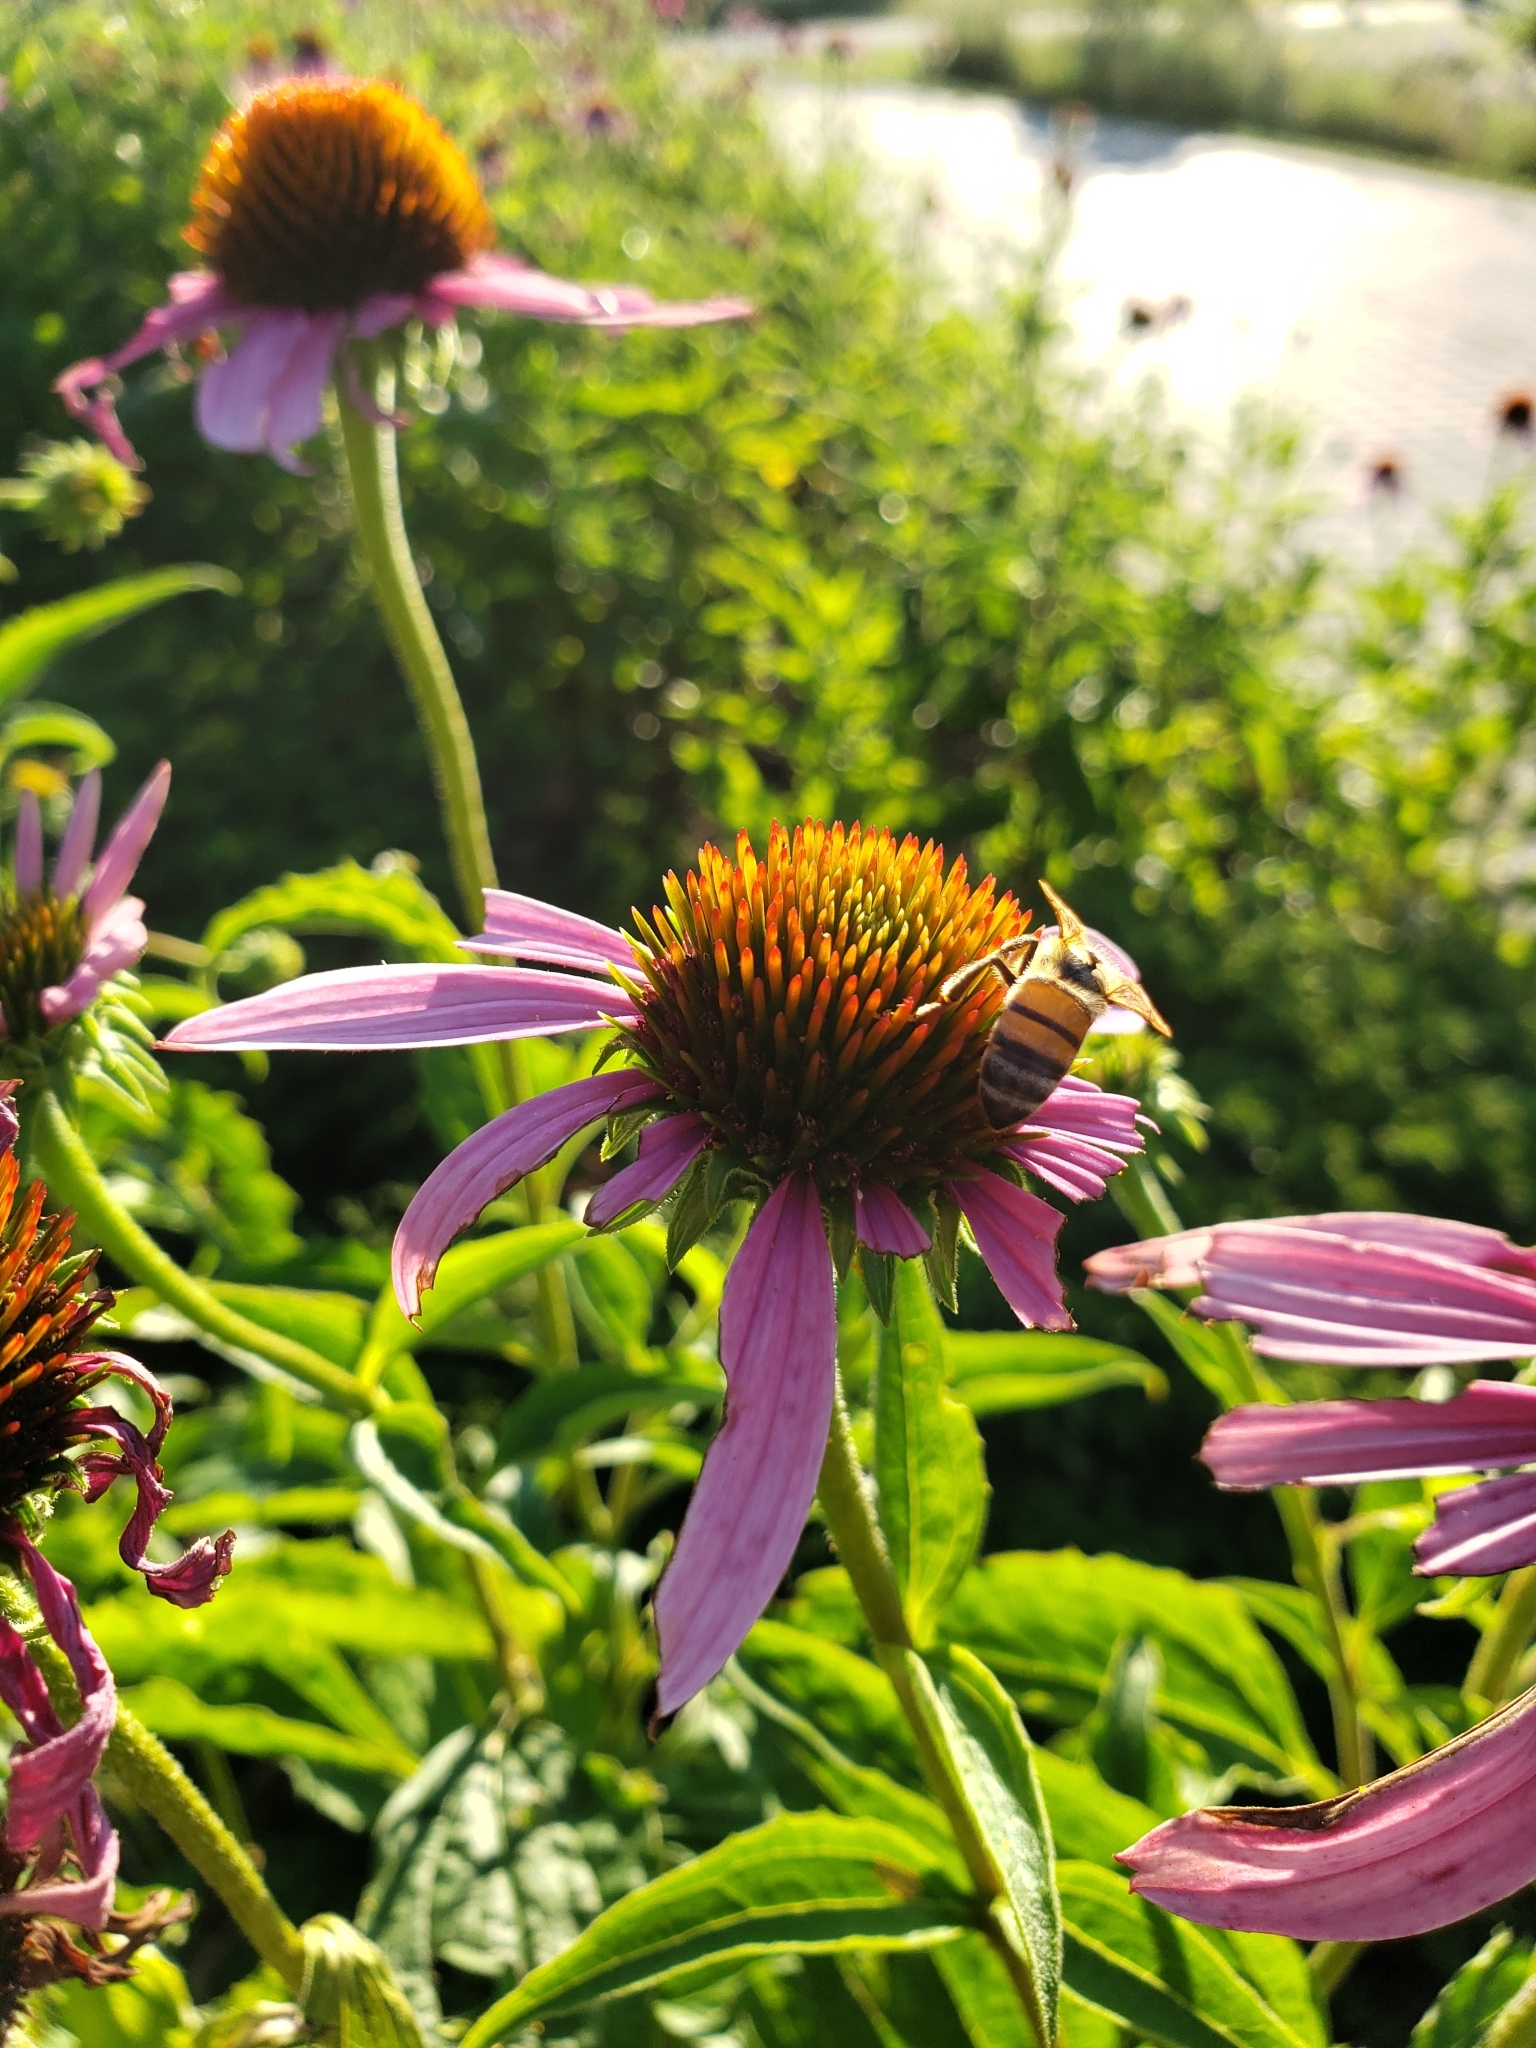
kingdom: Plantae
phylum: Tracheophyta
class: Magnoliopsida
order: Asterales
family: Asteraceae
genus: Echinacea
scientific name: Echinacea purpurea
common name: Broad-leaved purple coneflower
